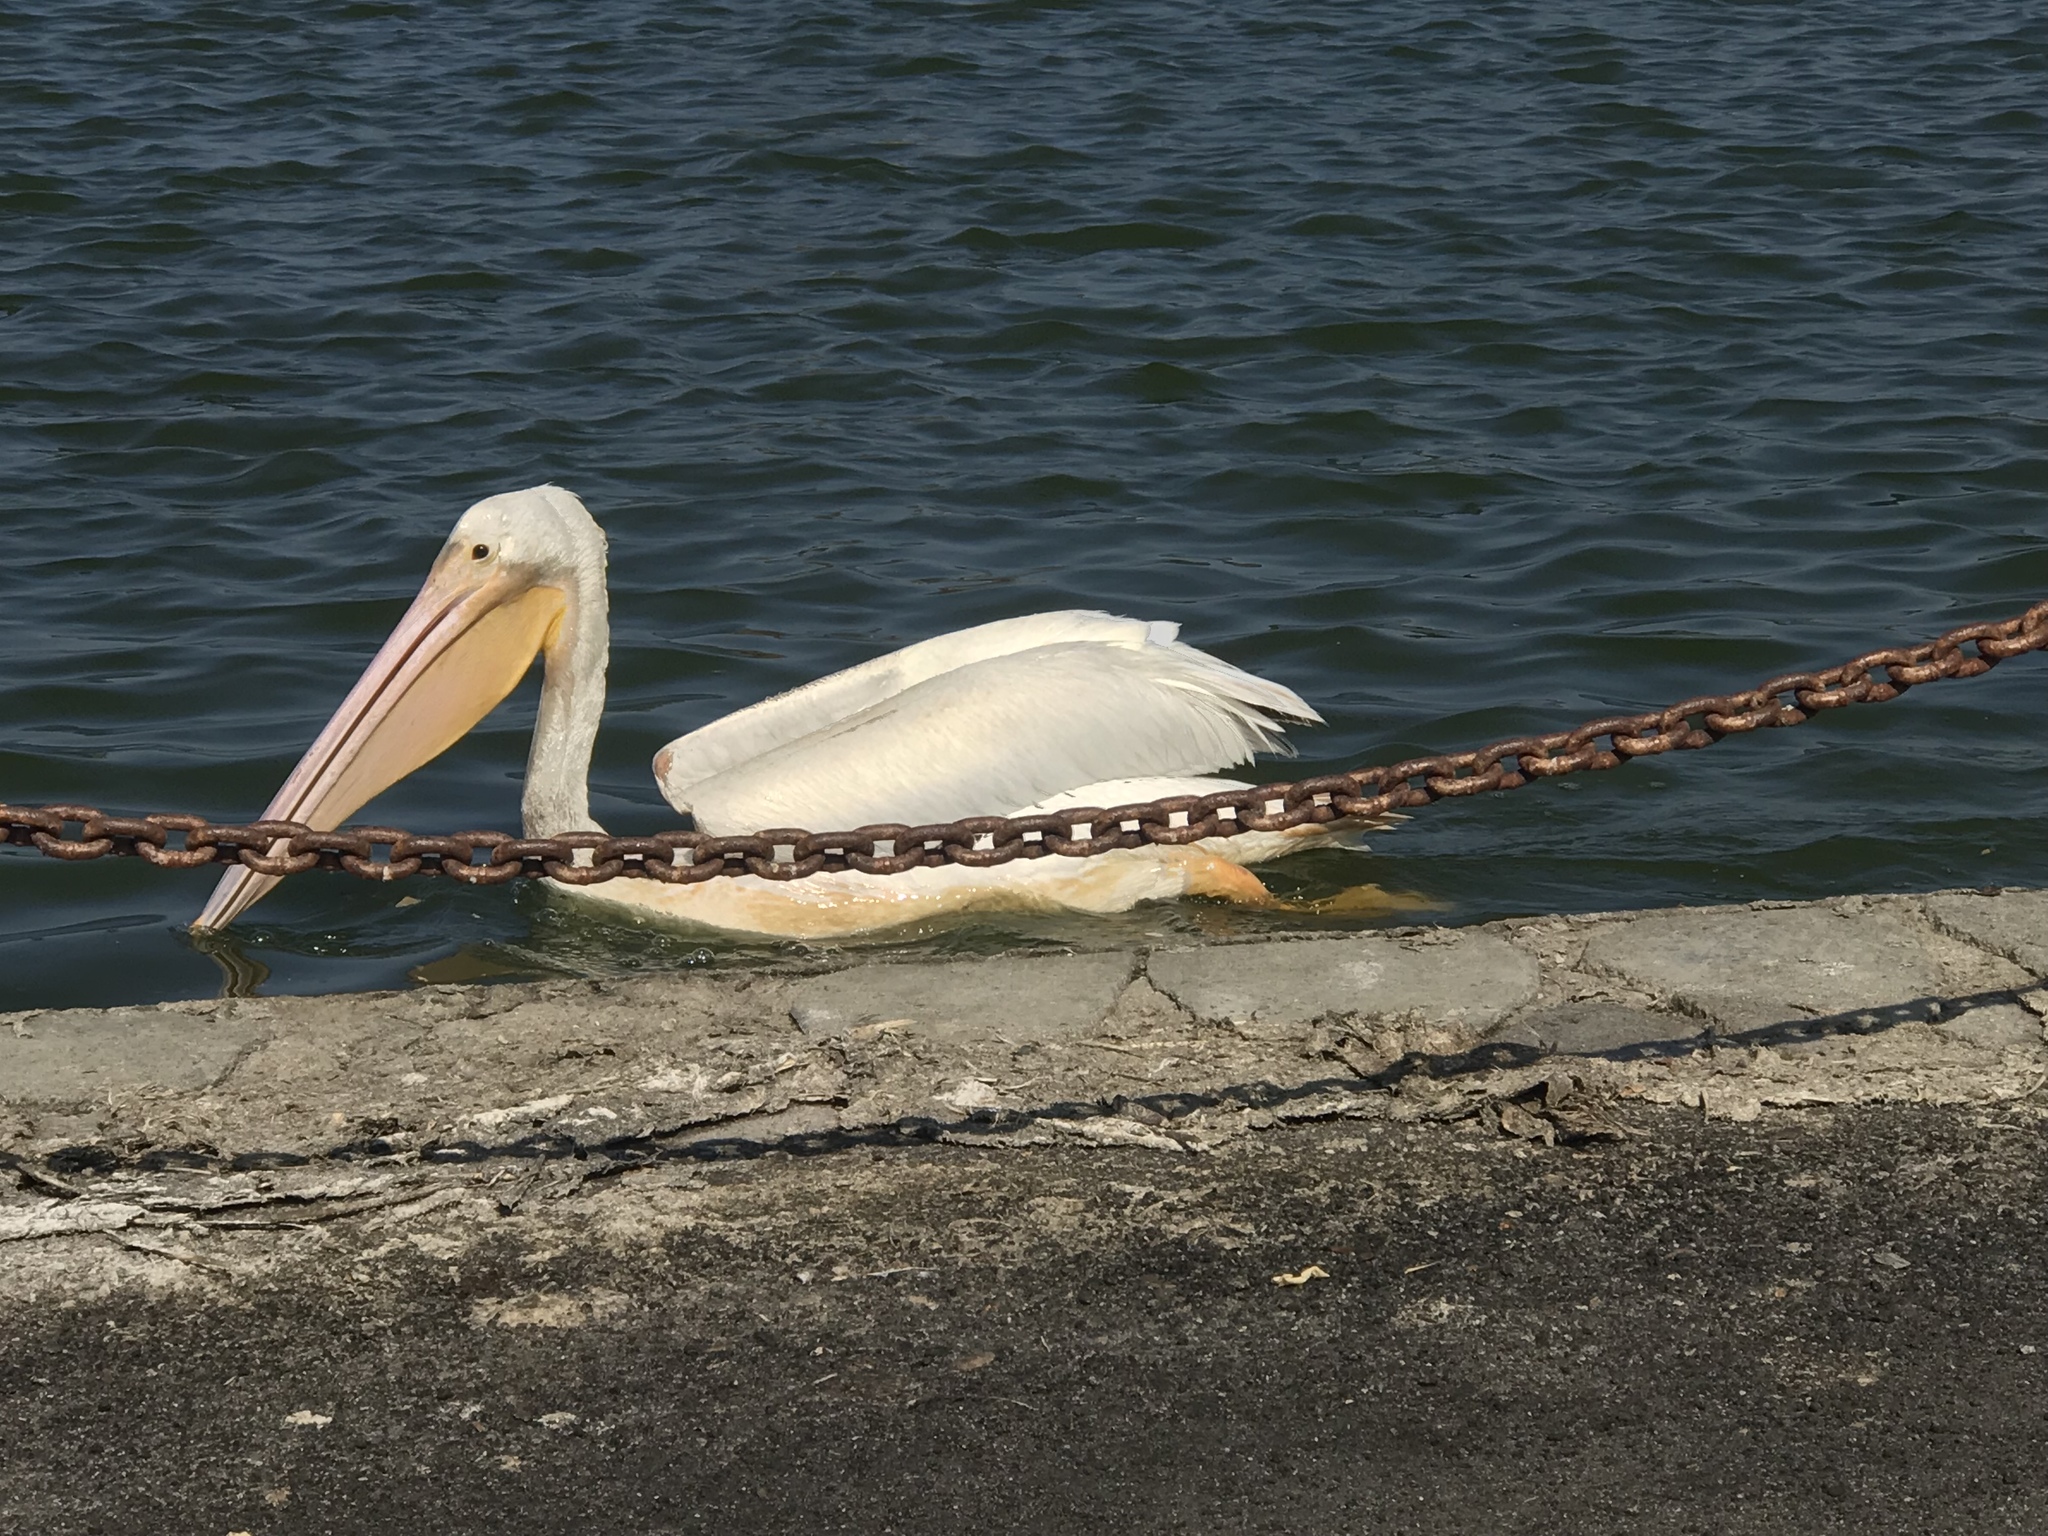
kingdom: Animalia
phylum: Chordata
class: Aves
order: Pelecaniformes
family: Pelecanidae
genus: Pelecanus
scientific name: Pelecanus erythrorhynchos
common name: American white pelican
